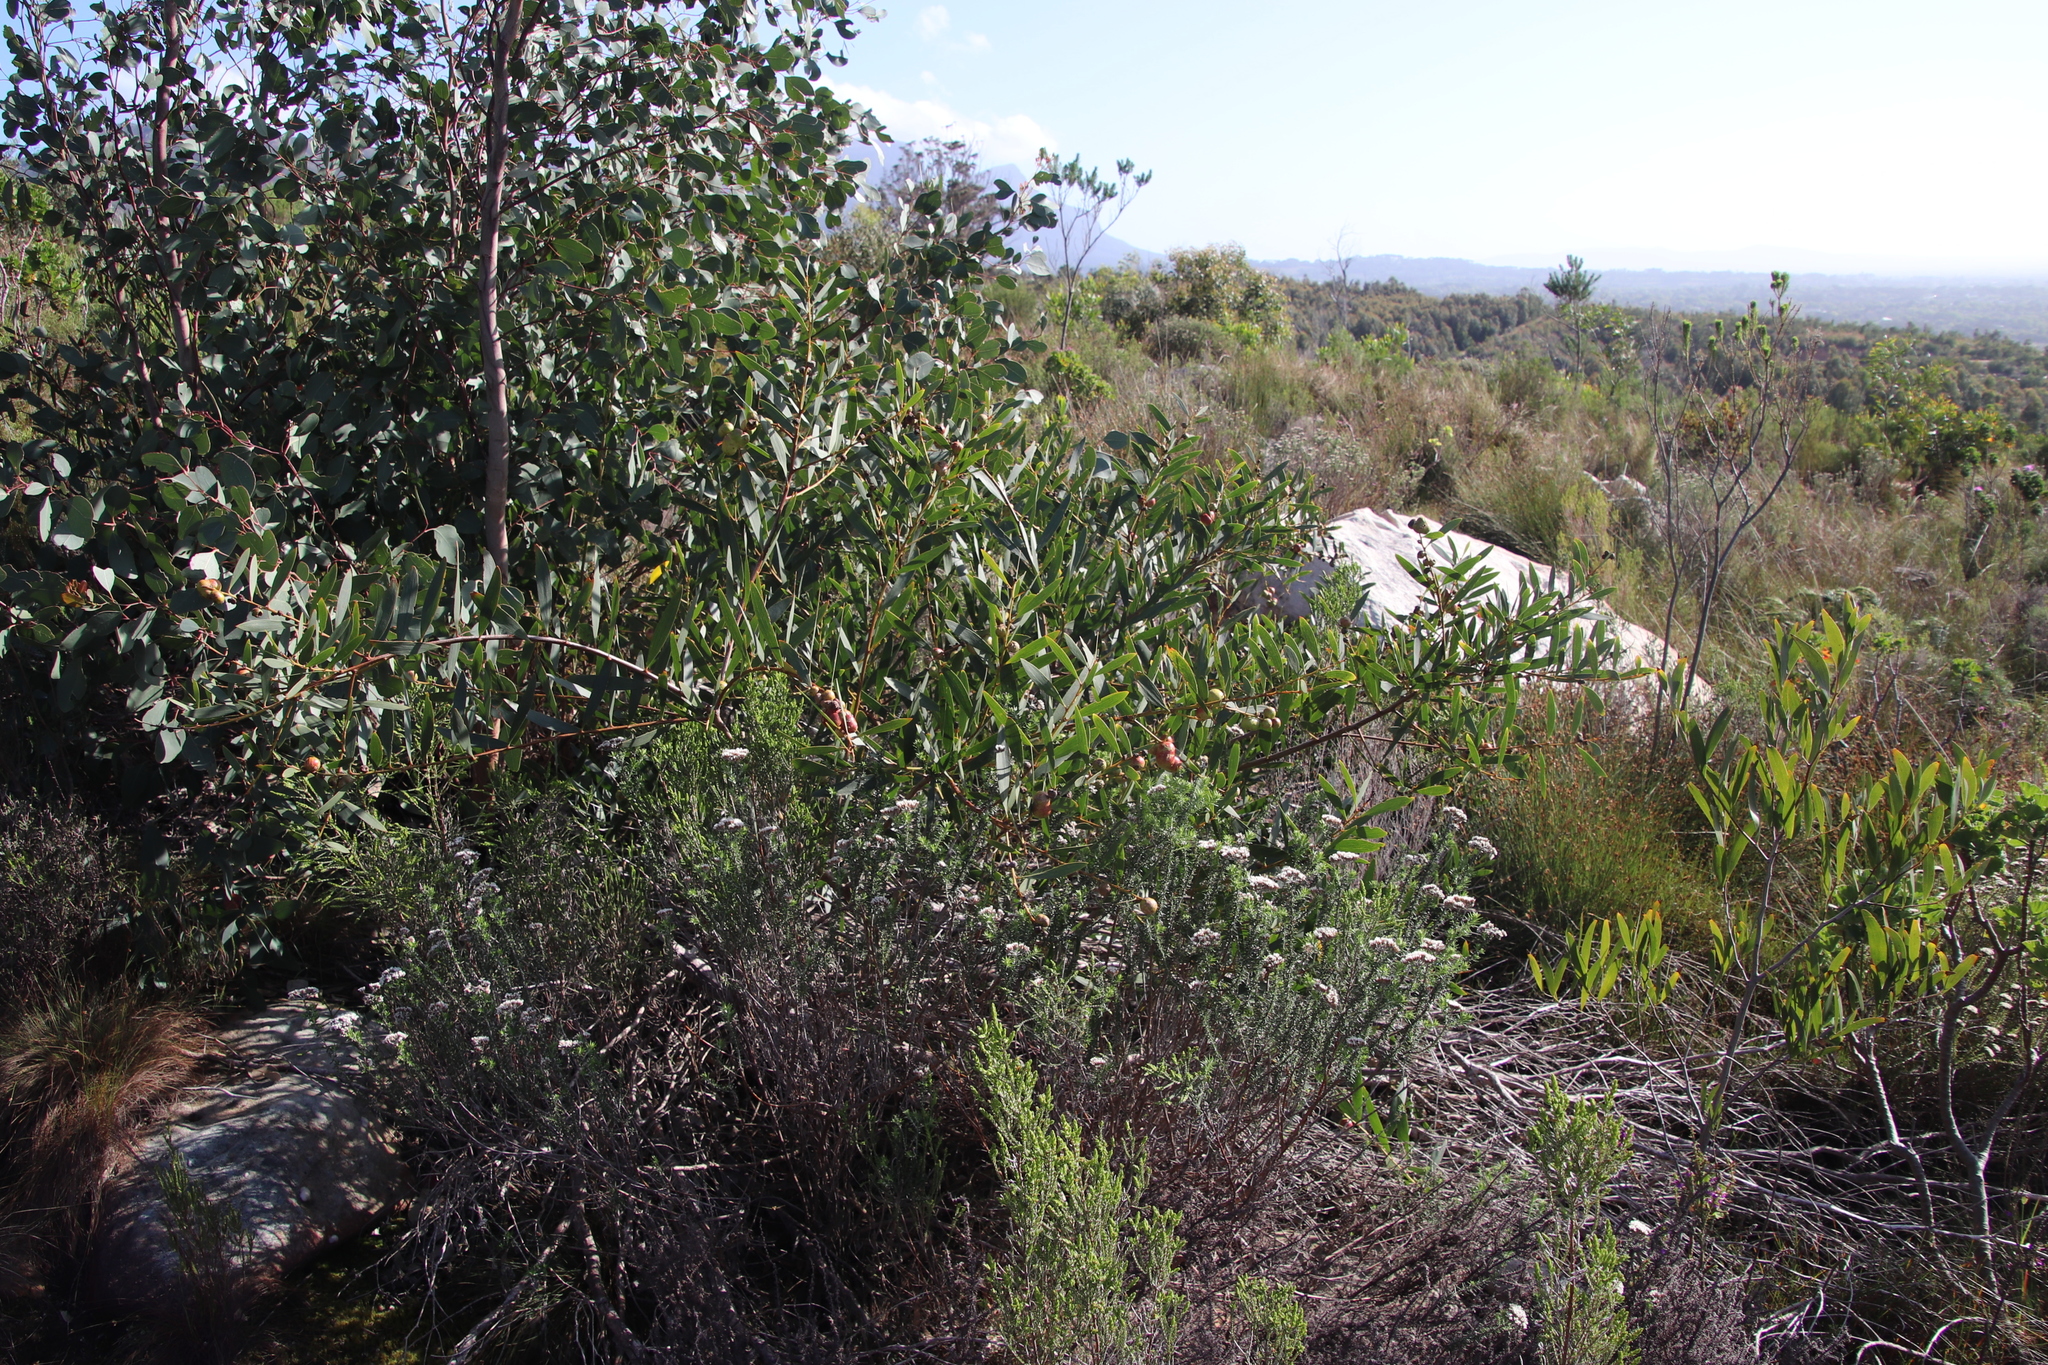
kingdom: Plantae
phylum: Tracheophyta
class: Magnoliopsida
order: Fabales
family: Fabaceae
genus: Acacia
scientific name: Acacia longifolia
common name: Sydney golden wattle
